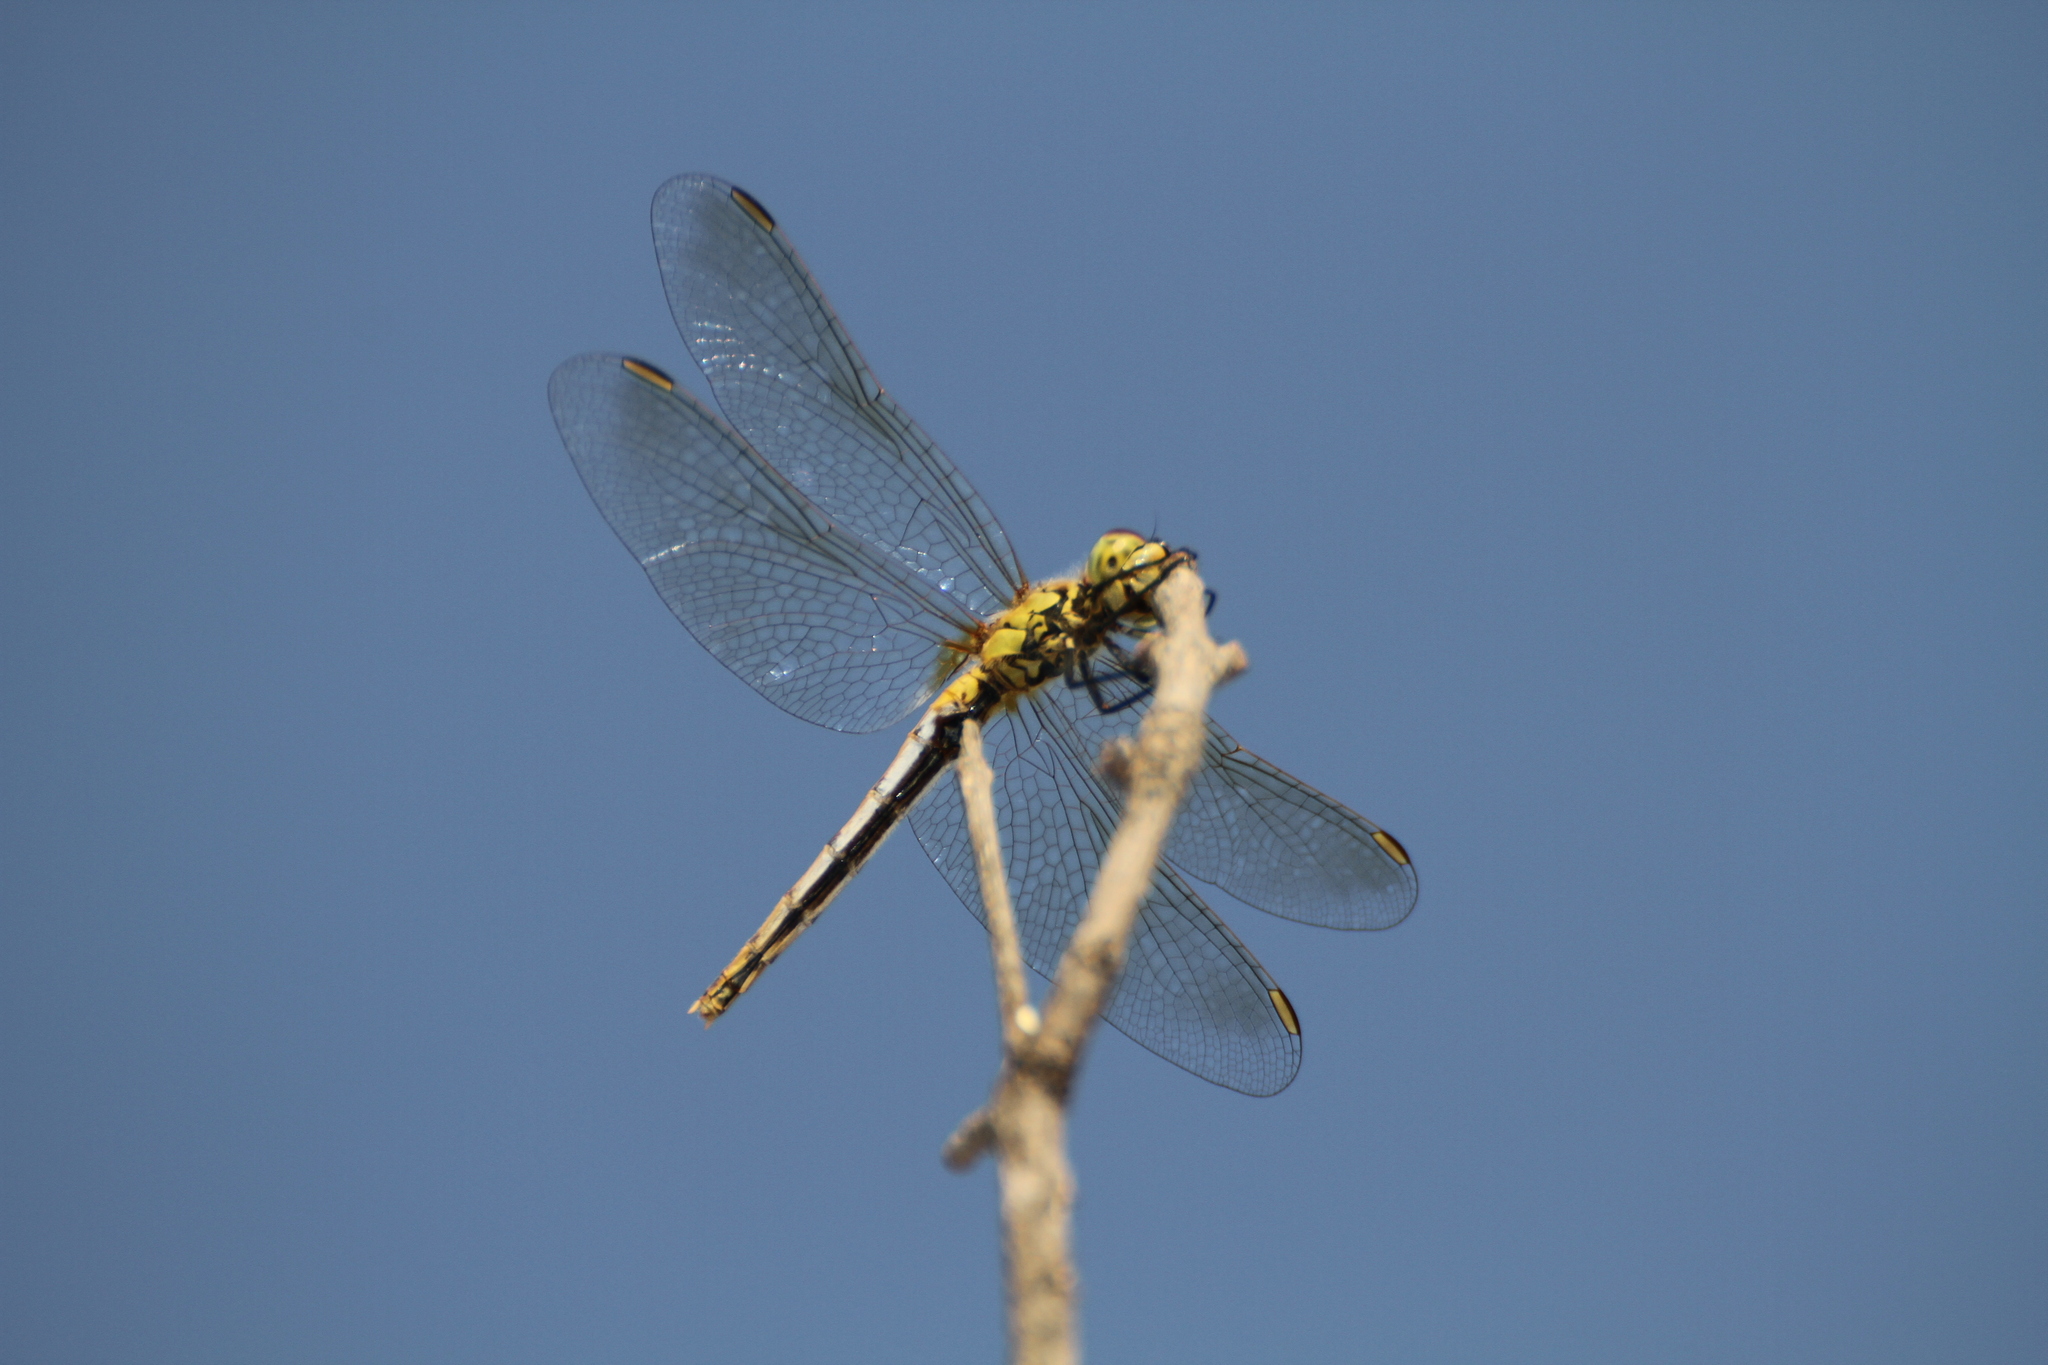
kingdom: Animalia
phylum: Arthropoda
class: Insecta
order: Odonata
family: Libellulidae
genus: Sympetrum
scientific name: Sympetrum depressiusculum
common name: Spotted darter
